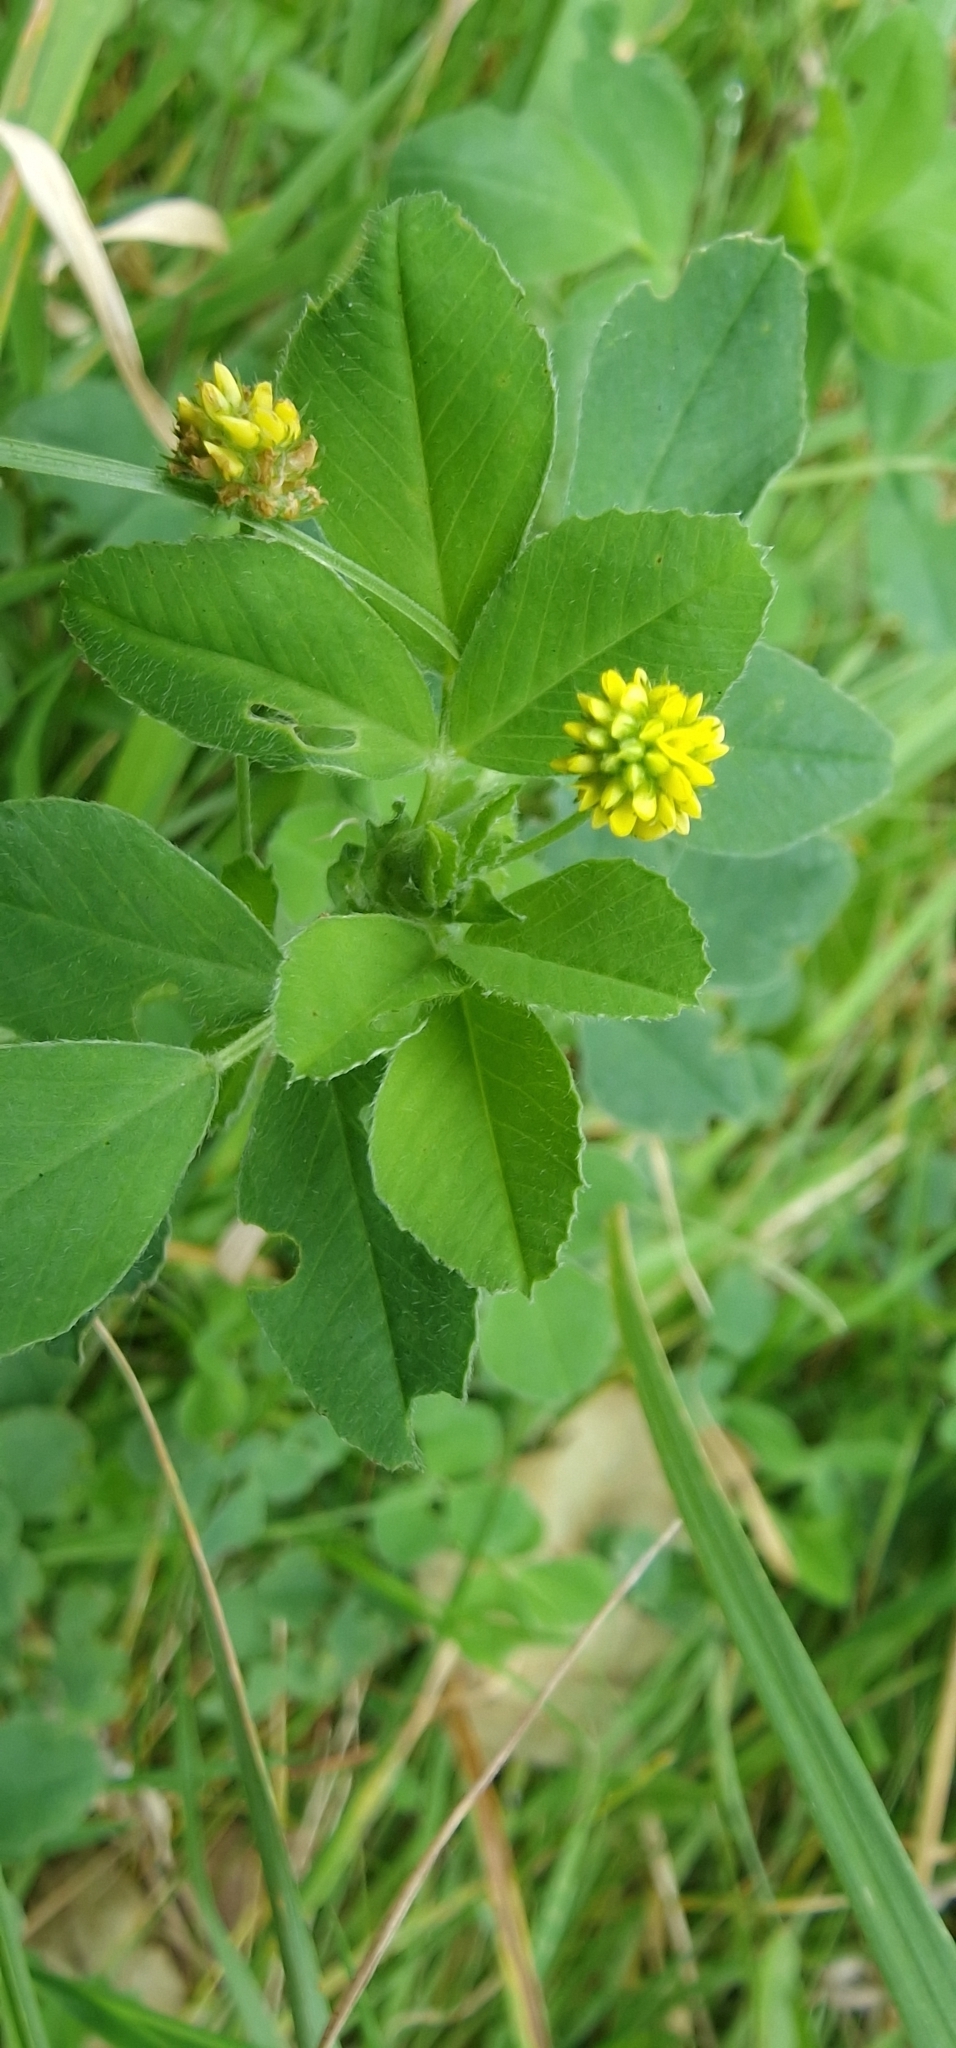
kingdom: Plantae
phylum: Tracheophyta
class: Magnoliopsida
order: Fabales
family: Fabaceae
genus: Medicago
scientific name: Medicago lupulina
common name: Black medick
